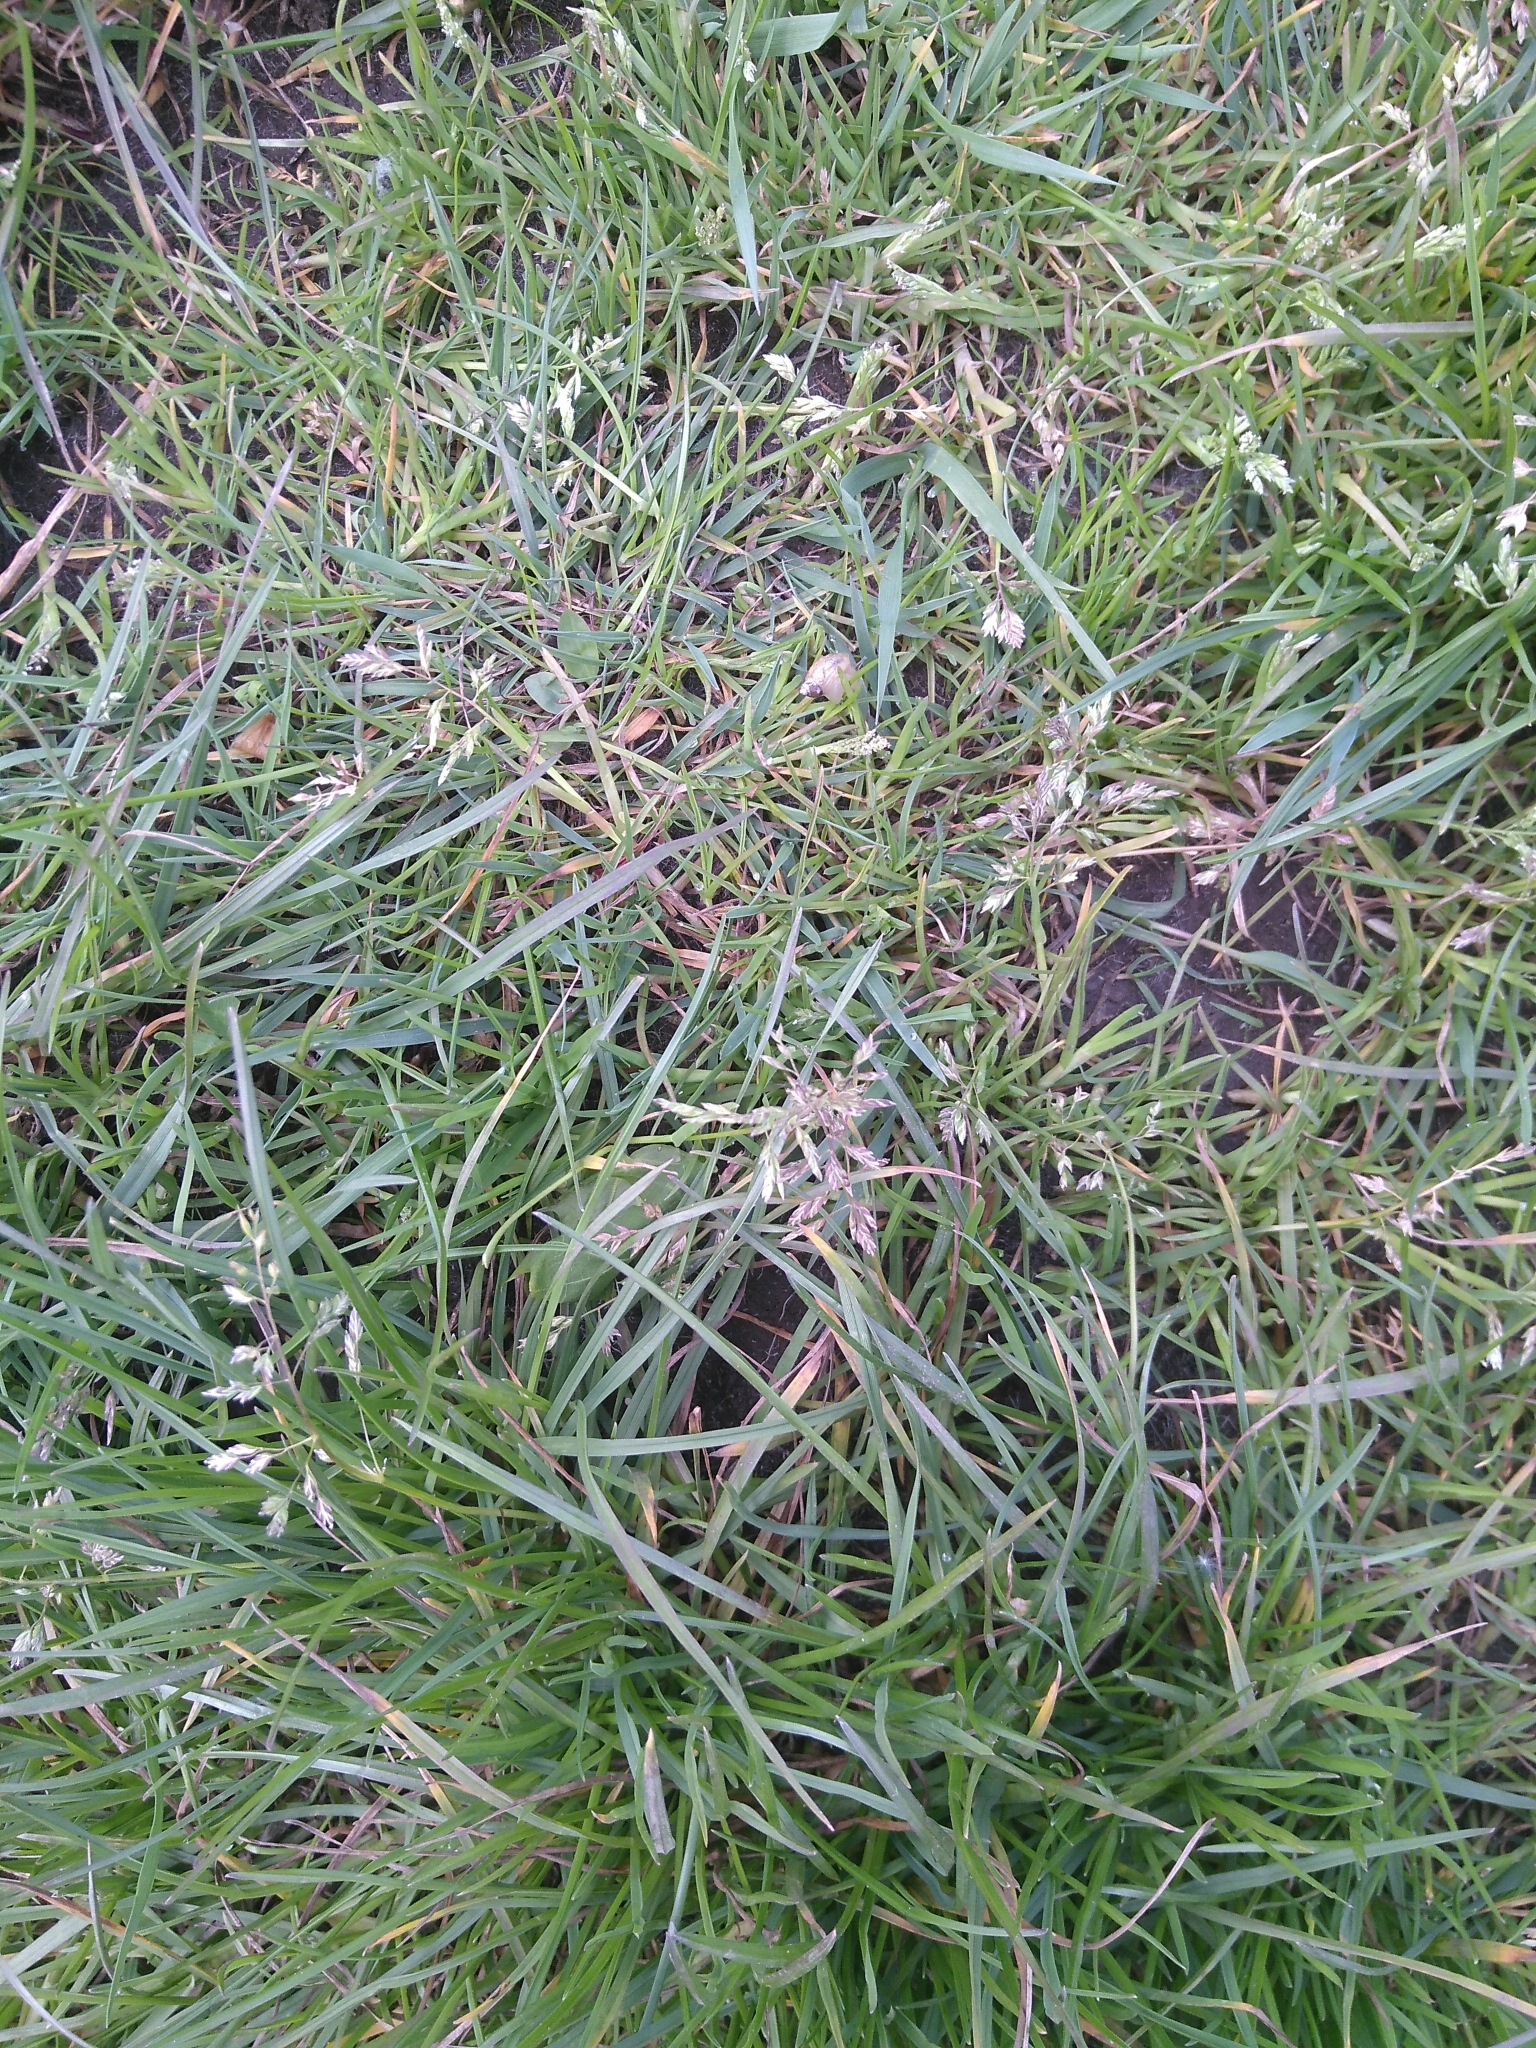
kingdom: Plantae
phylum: Tracheophyta
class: Liliopsida
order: Poales
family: Poaceae
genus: Poa
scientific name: Poa annua
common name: Annual bluegrass
